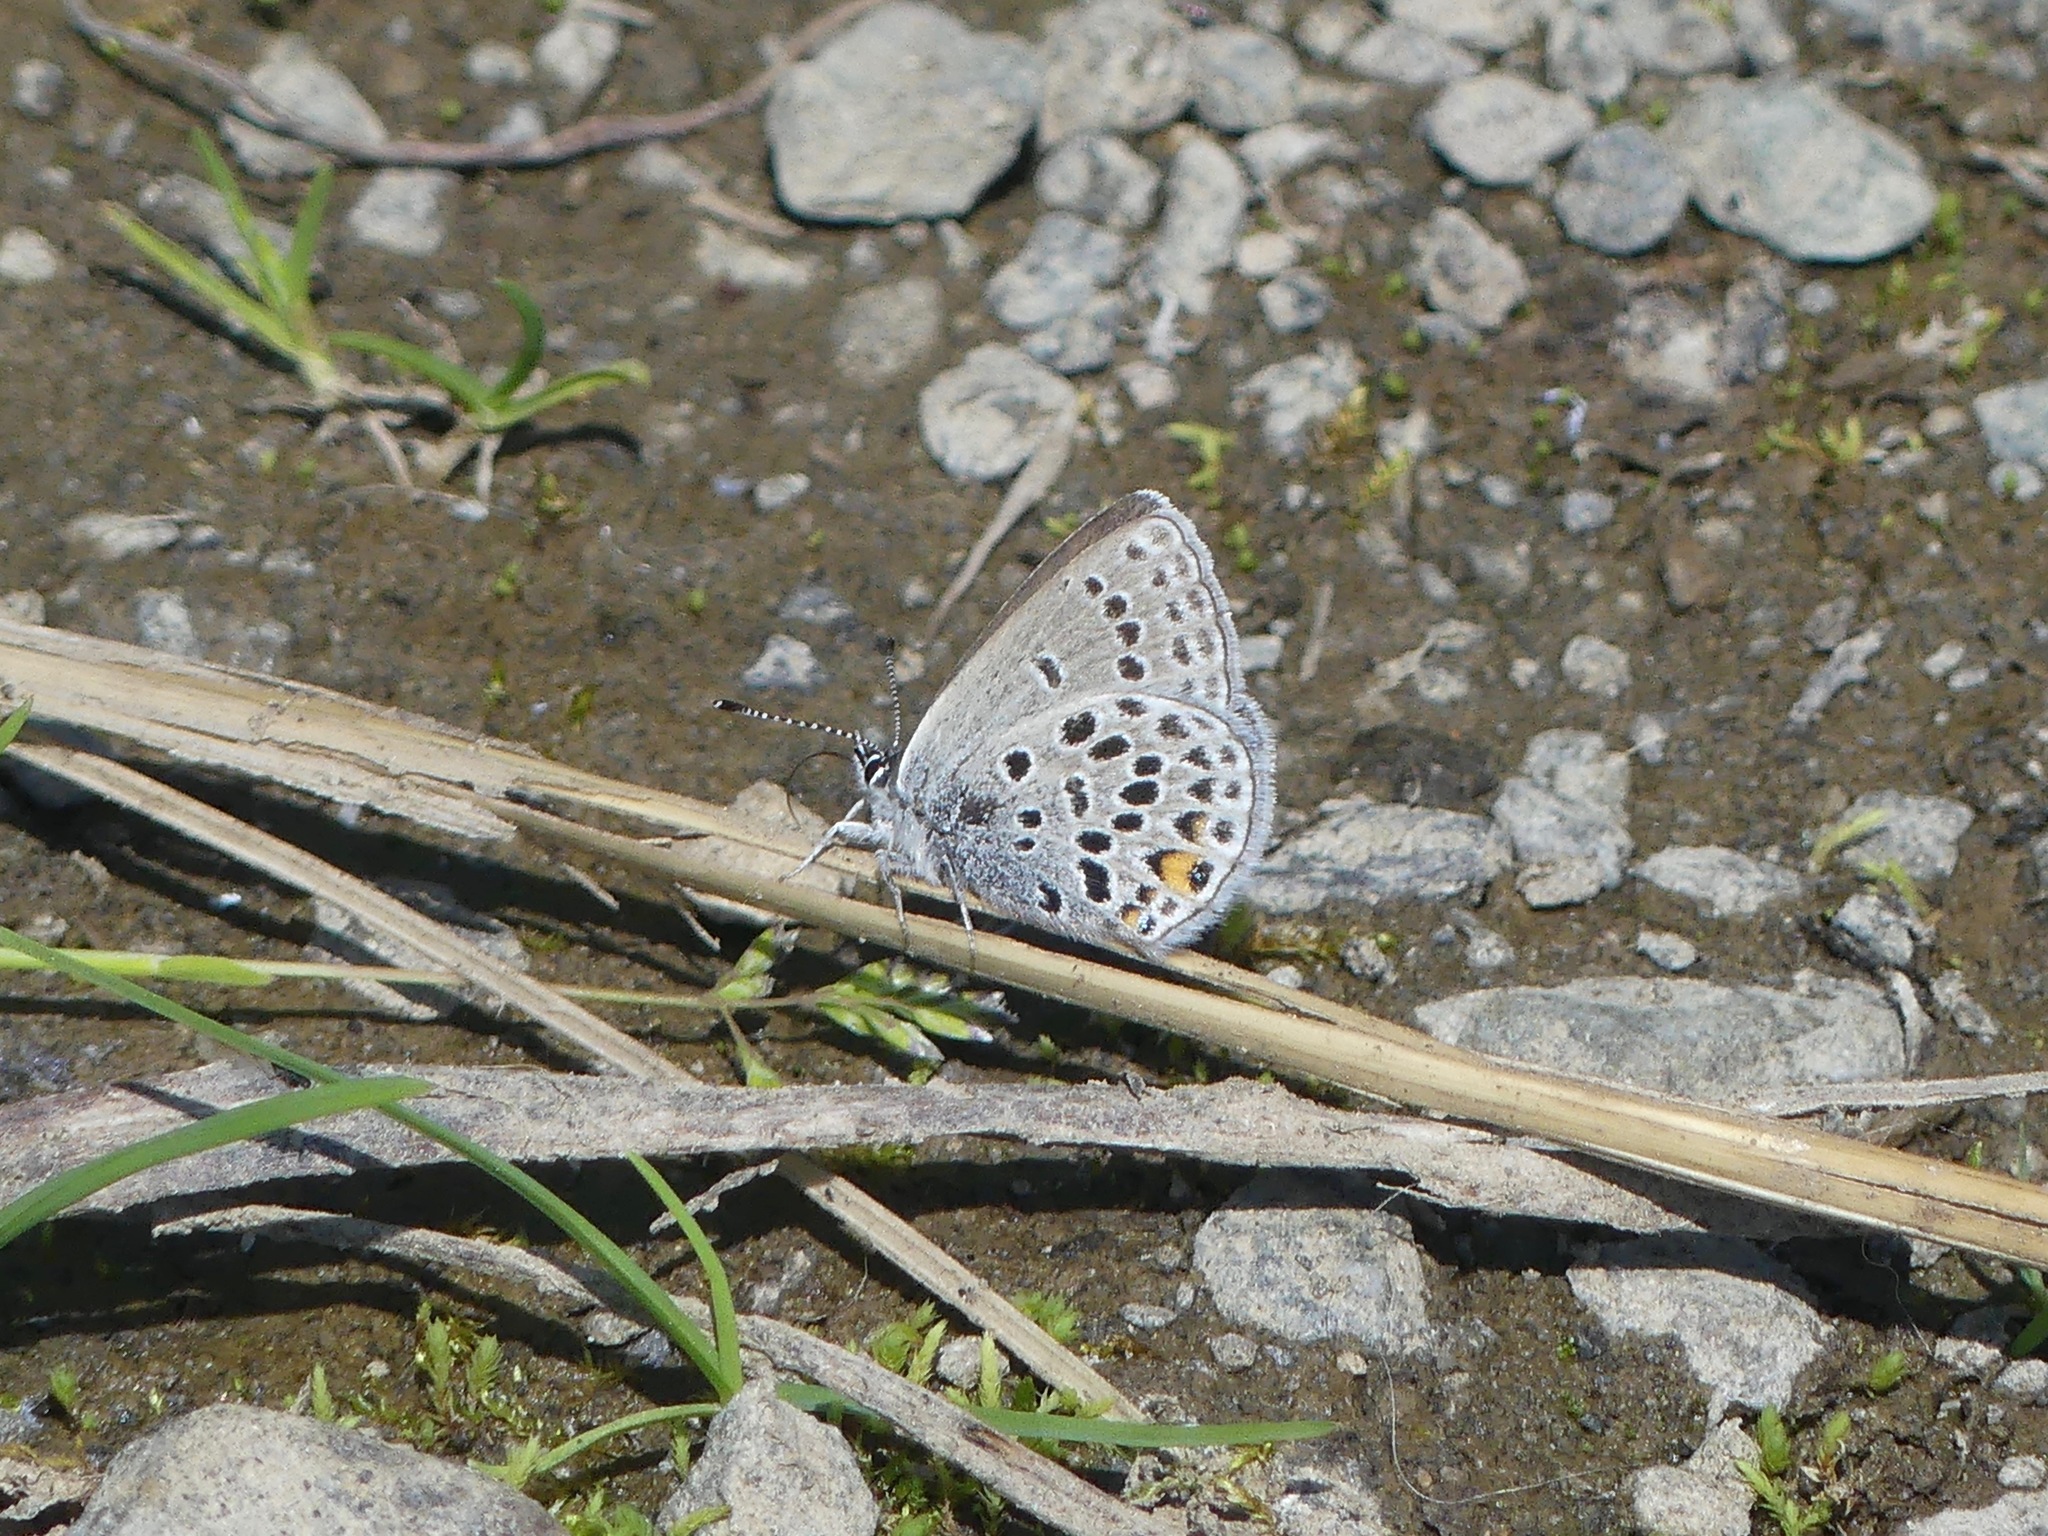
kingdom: Animalia
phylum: Arthropoda
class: Insecta
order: Lepidoptera
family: Lycaenidae
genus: Vacciniina
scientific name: Vacciniina optilete
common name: Cranberry blue
